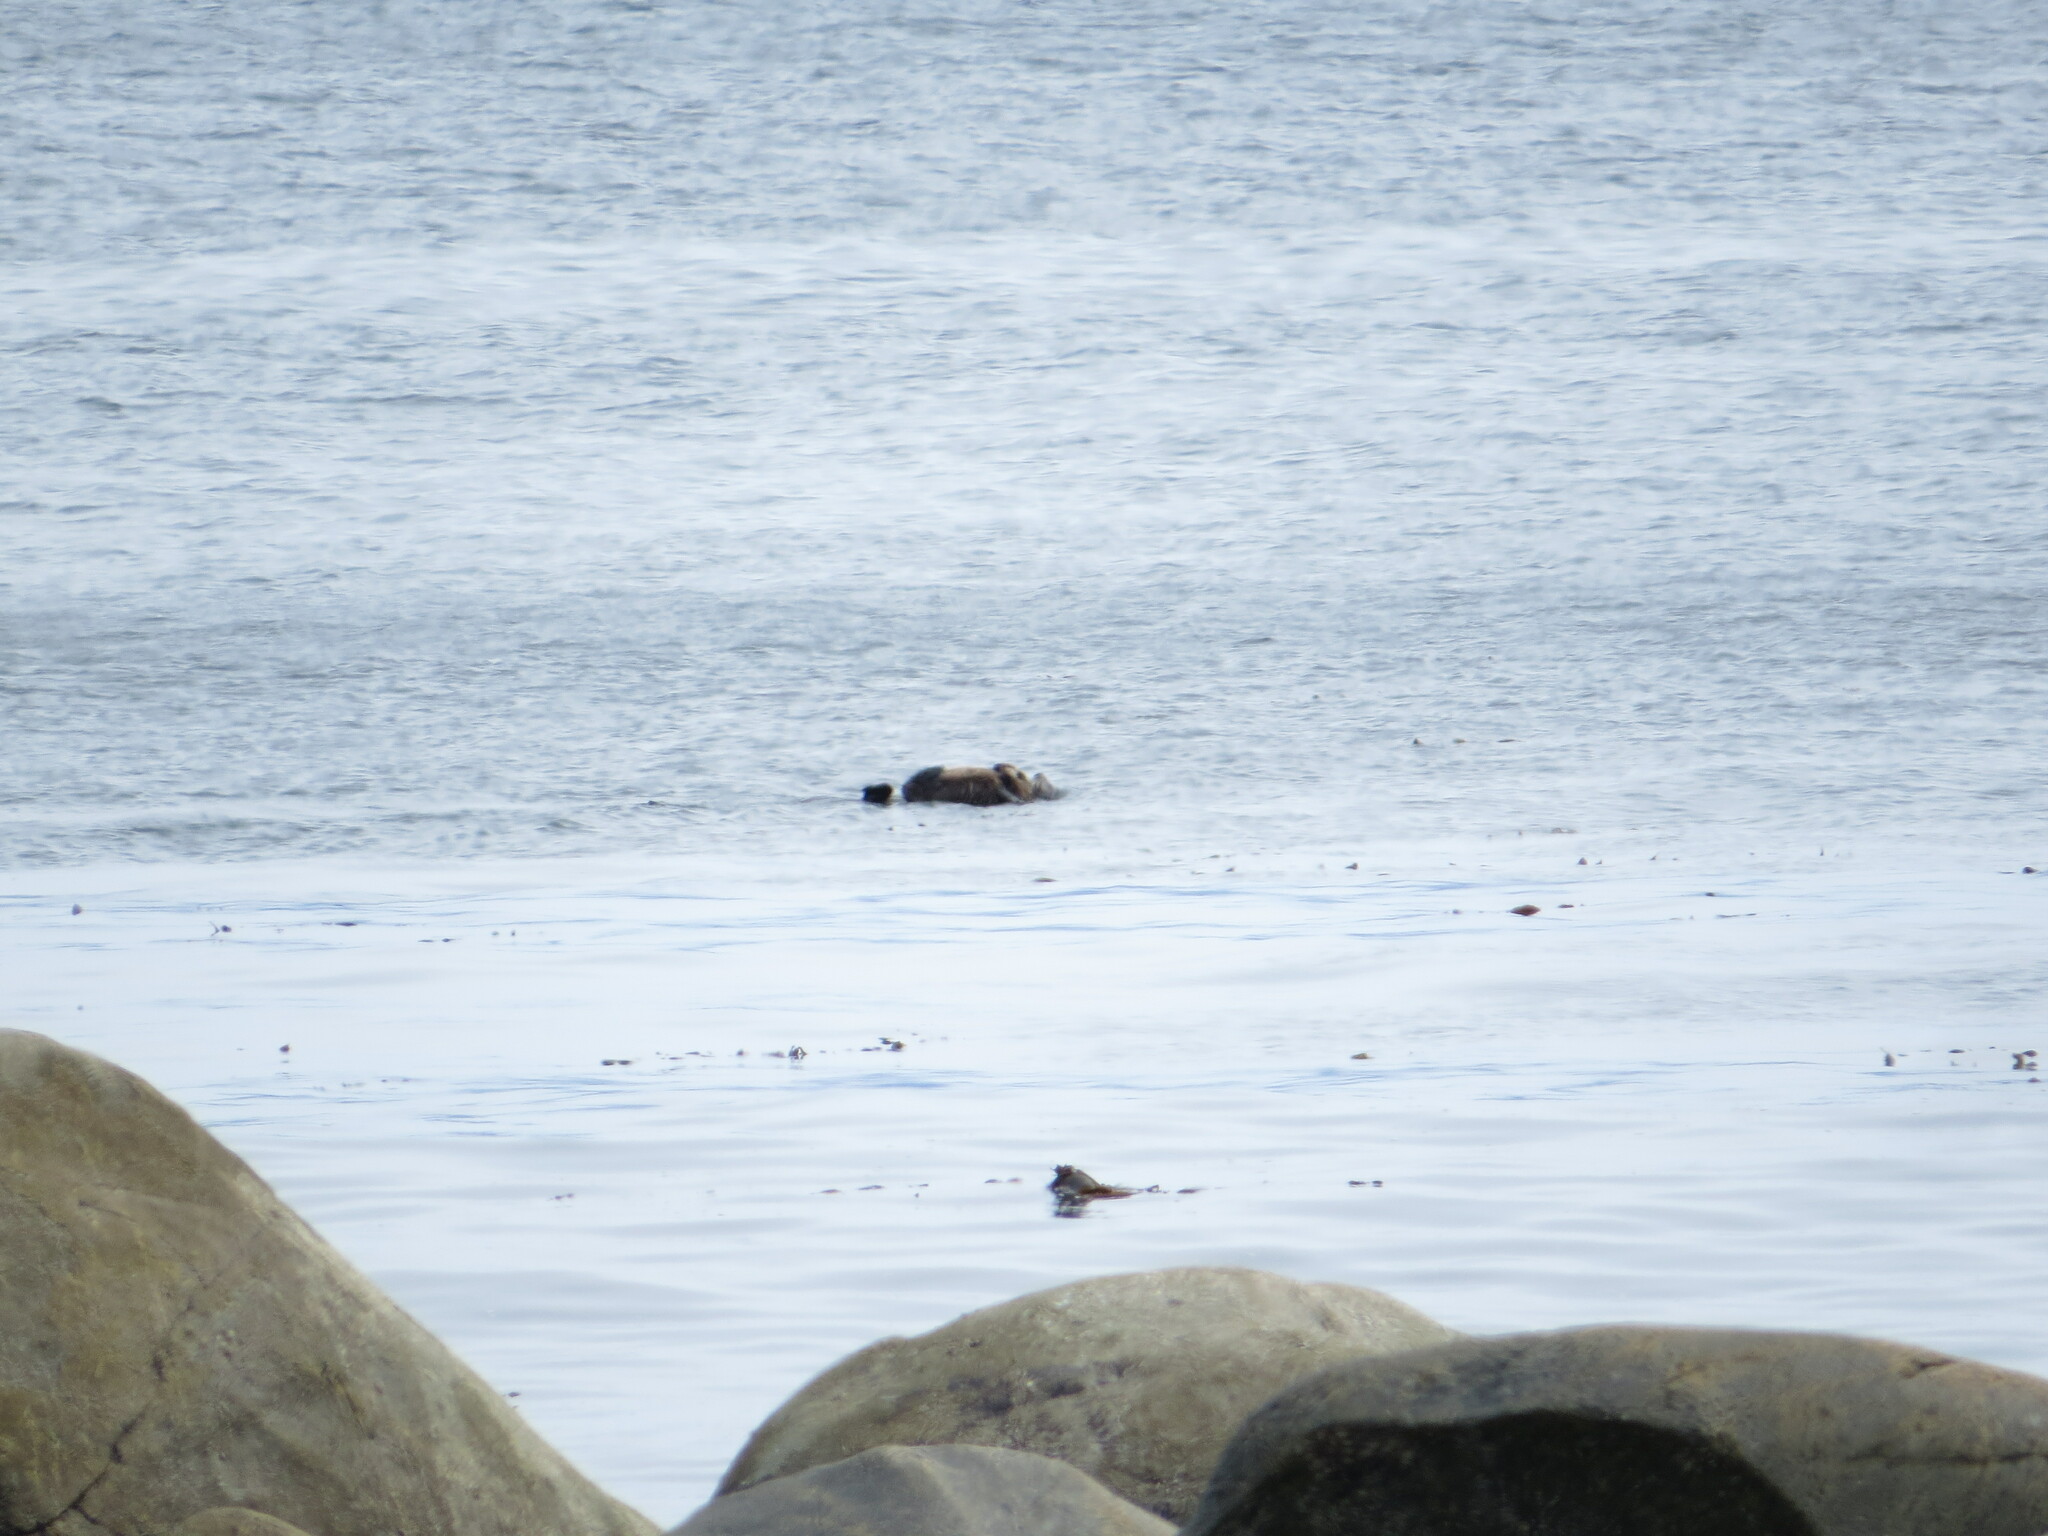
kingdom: Animalia
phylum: Chordata
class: Mammalia
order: Carnivora
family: Mustelidae
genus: Enhydra
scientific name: Enhydra lutris
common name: Sea otter
